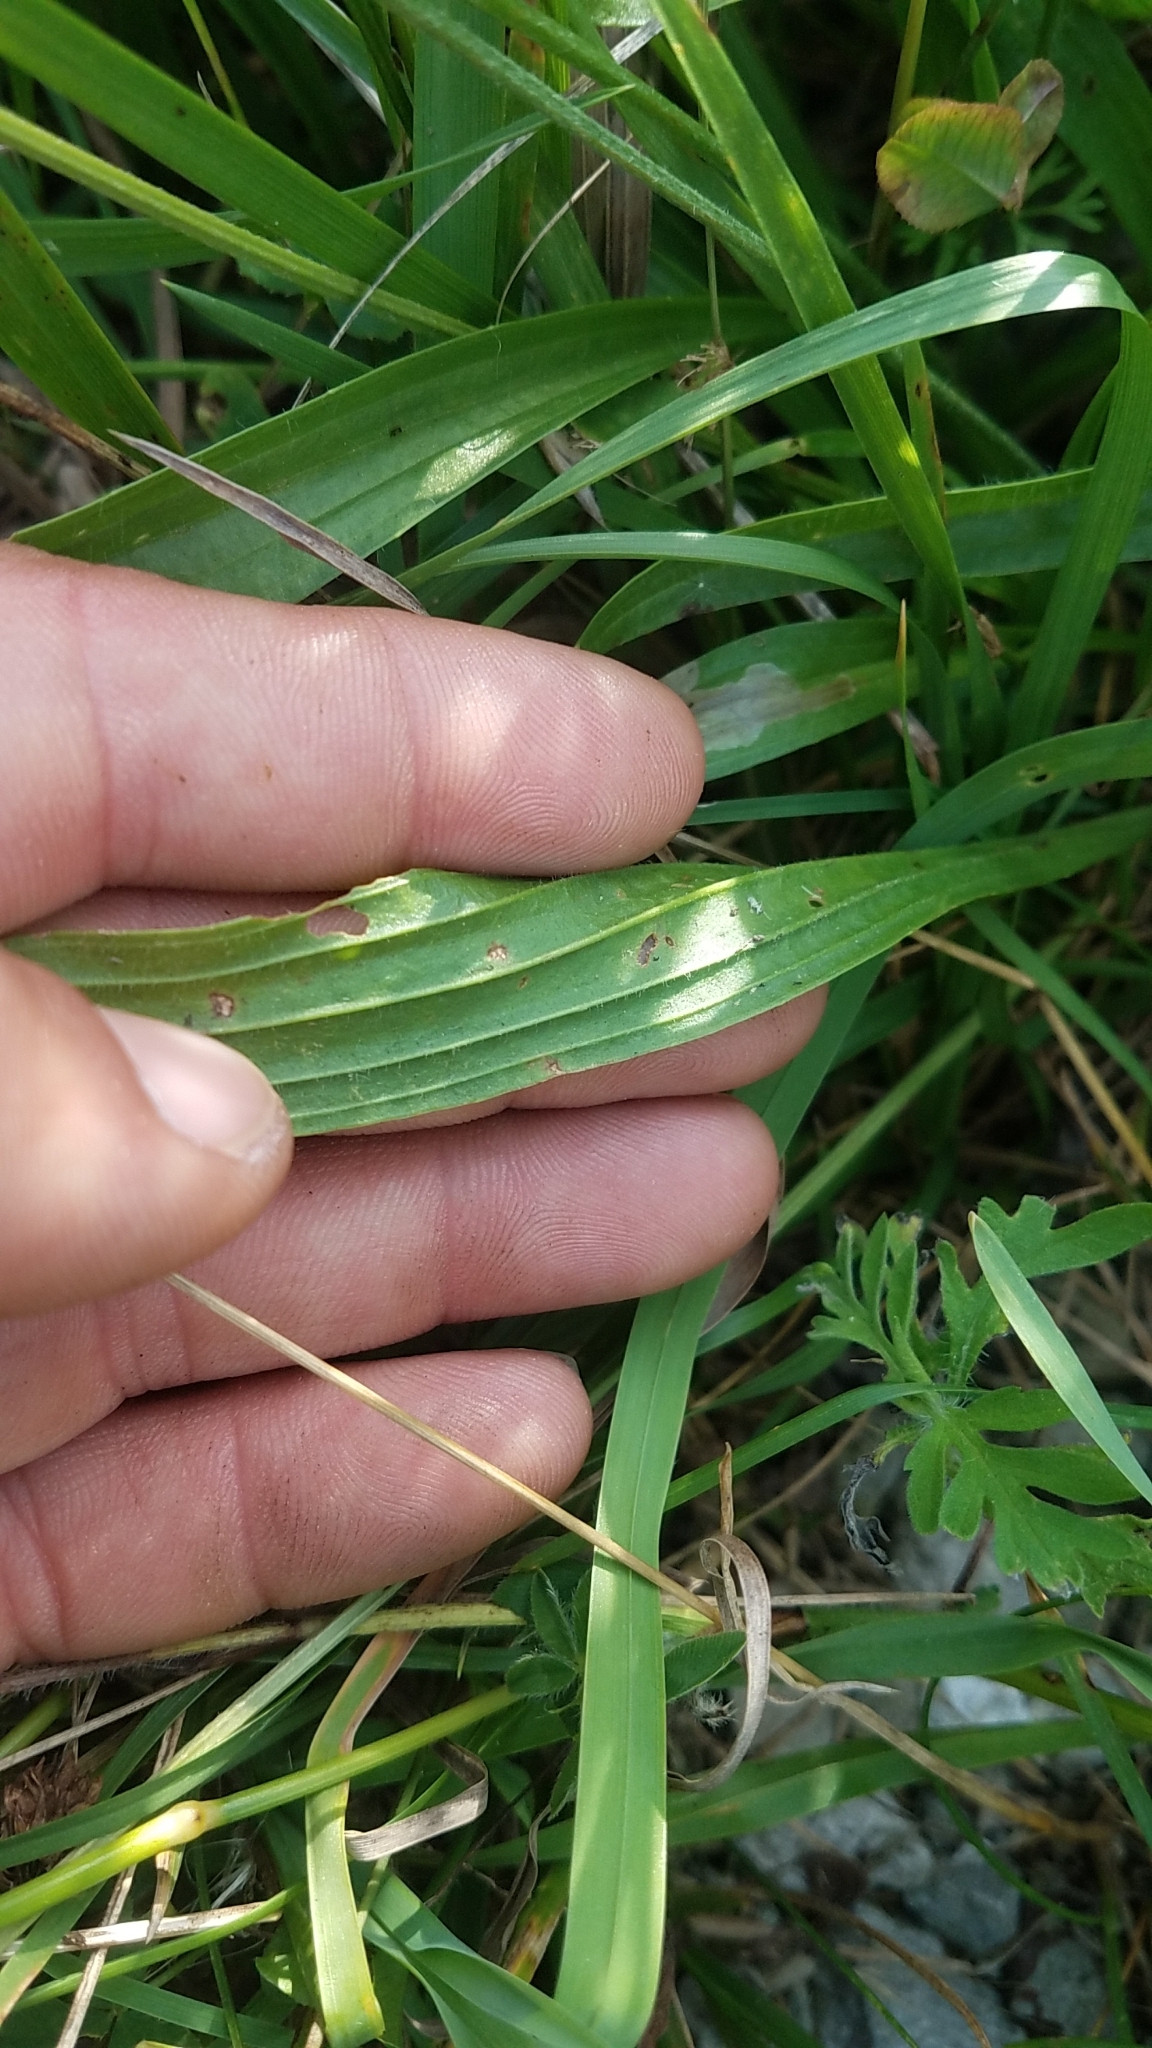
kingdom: Plantae
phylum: Tracheophyta
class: Magnoliopsida
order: Lamiales
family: Plantaginaceae
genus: Plantago
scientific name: Plantago lanceolata
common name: Ribwort plantain
